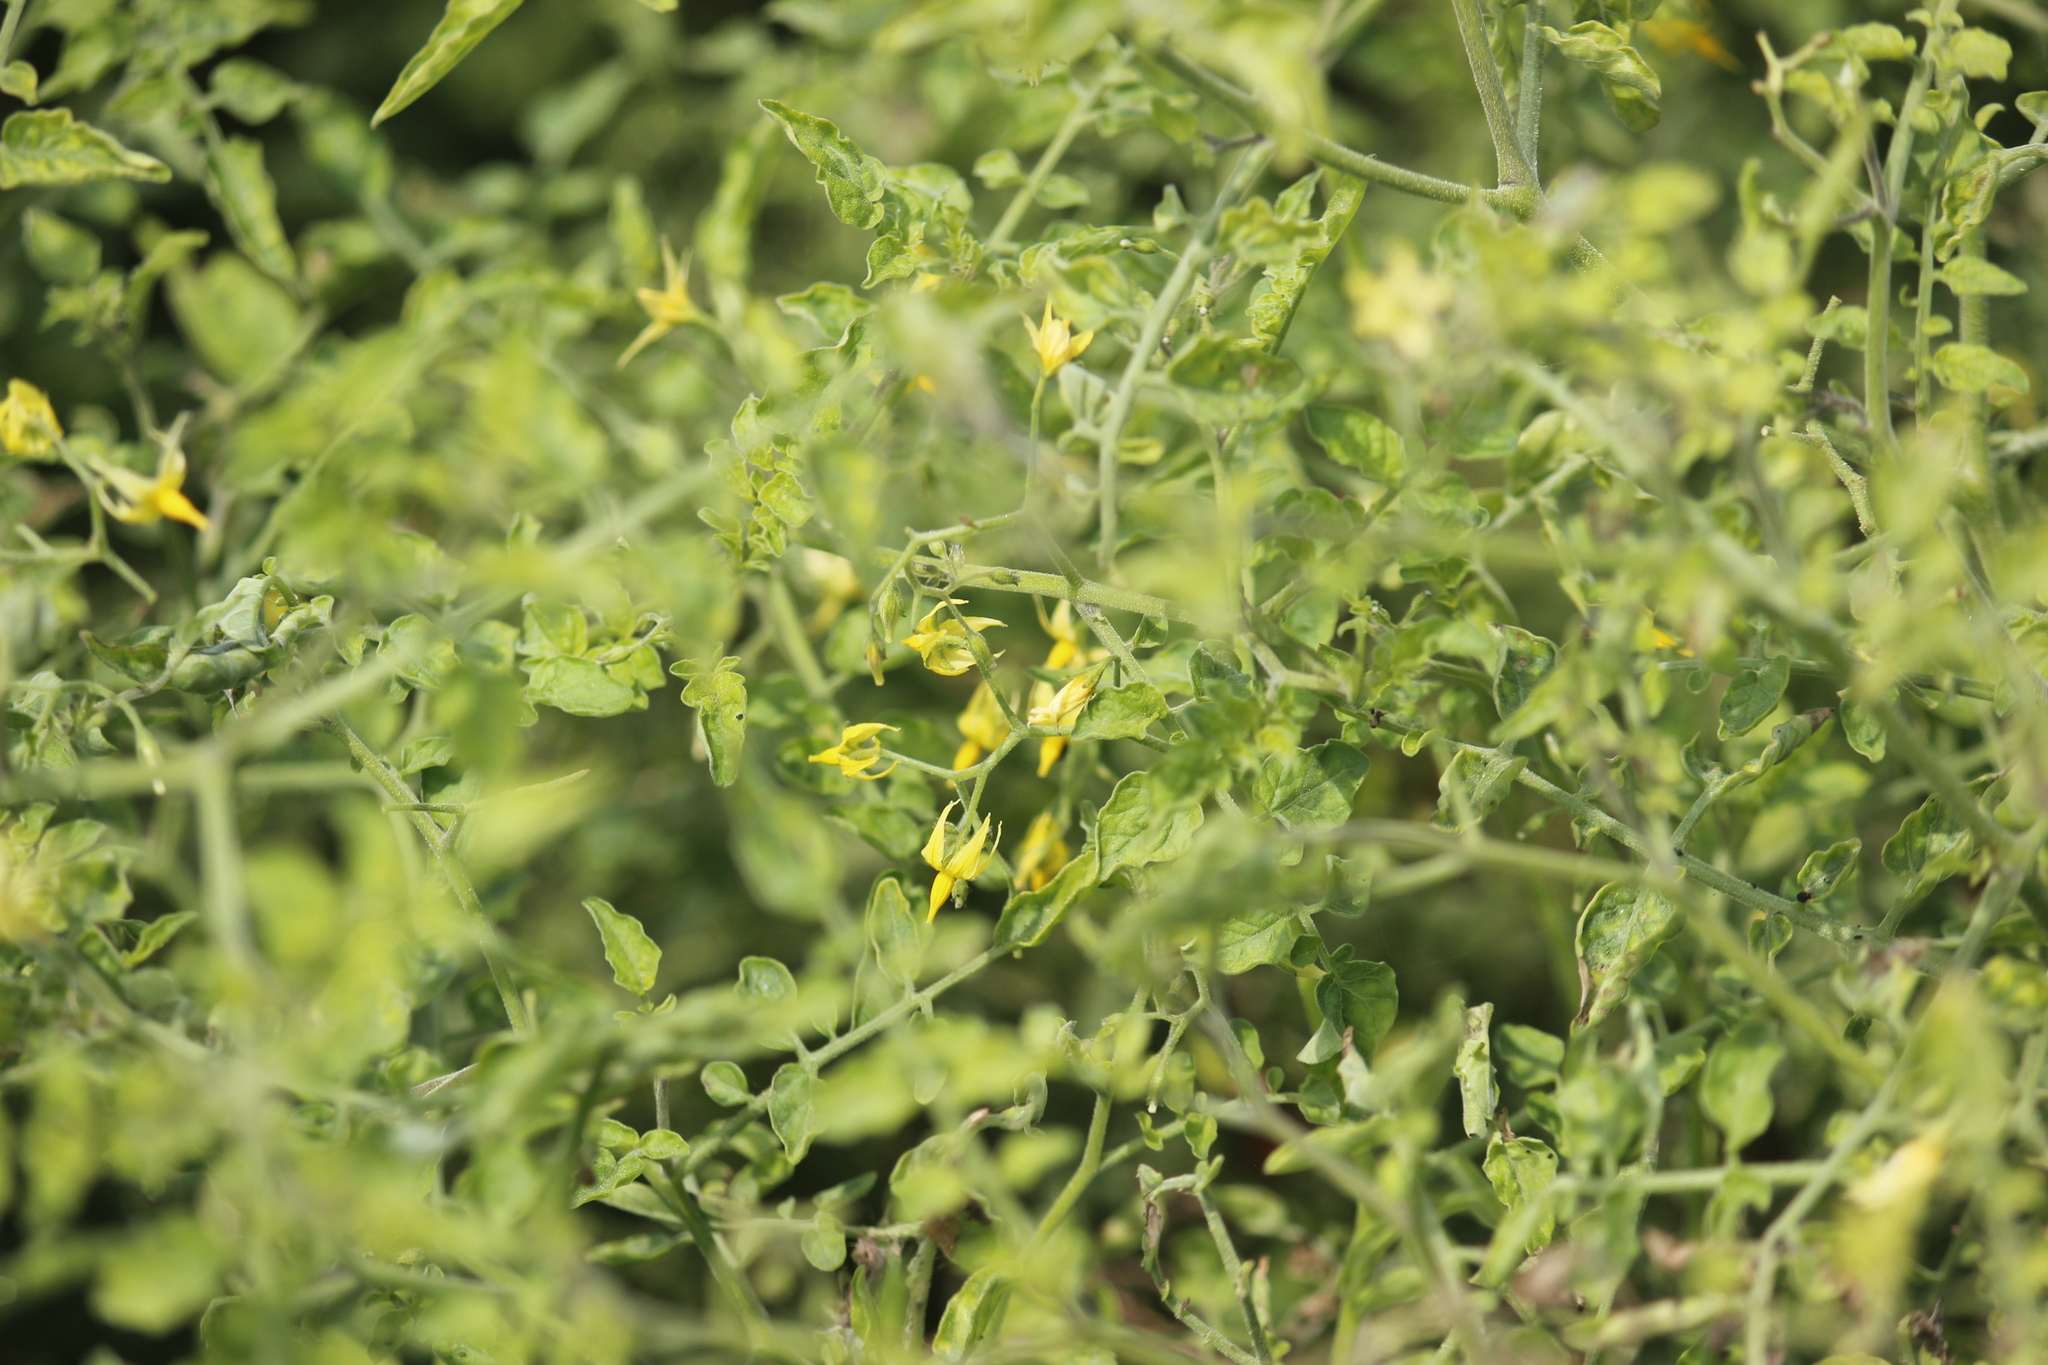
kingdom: Plantae
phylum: Tracheophyta
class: Magnoliopsida
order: Solanales
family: Solanaceae
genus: Solanum
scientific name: Solanum pimpinellifolium
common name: Currant-tomato
